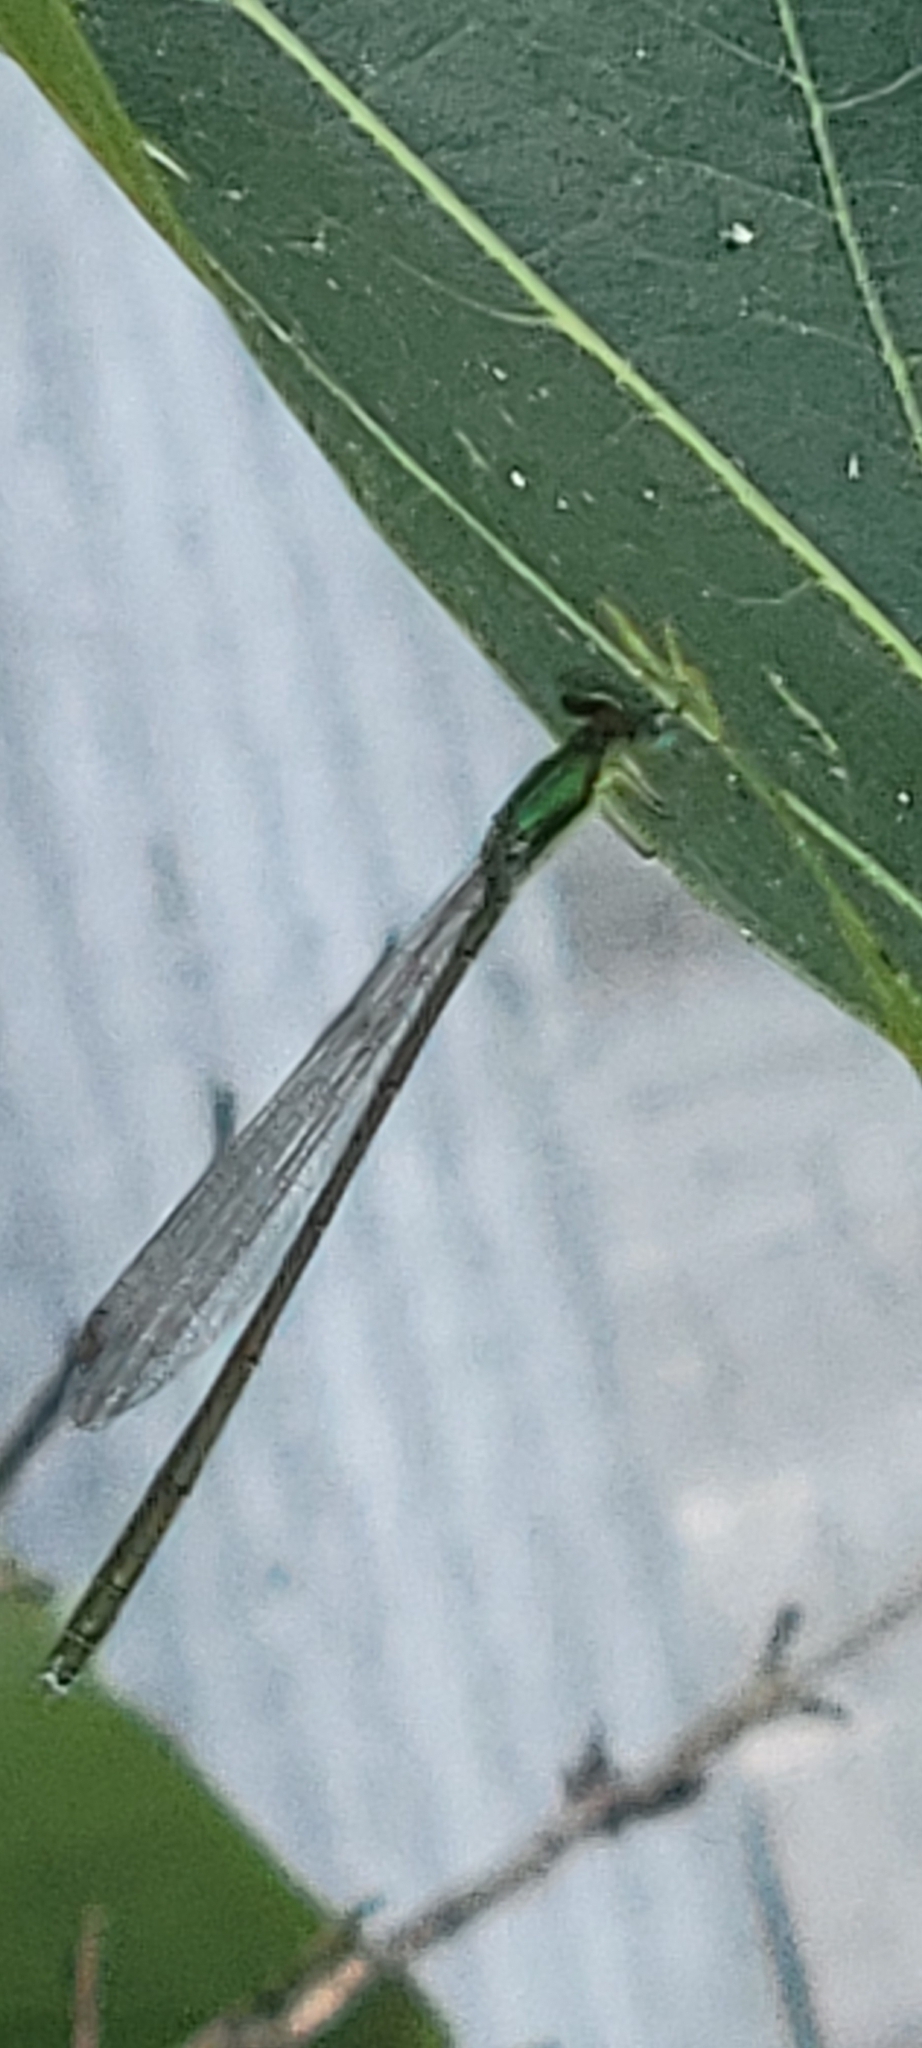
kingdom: Animalia
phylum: Arthropoda
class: Insecta
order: Odonata
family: Coenagrionidae
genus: Nehalennia
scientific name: Nehalennia irene
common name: Sedge sprite
